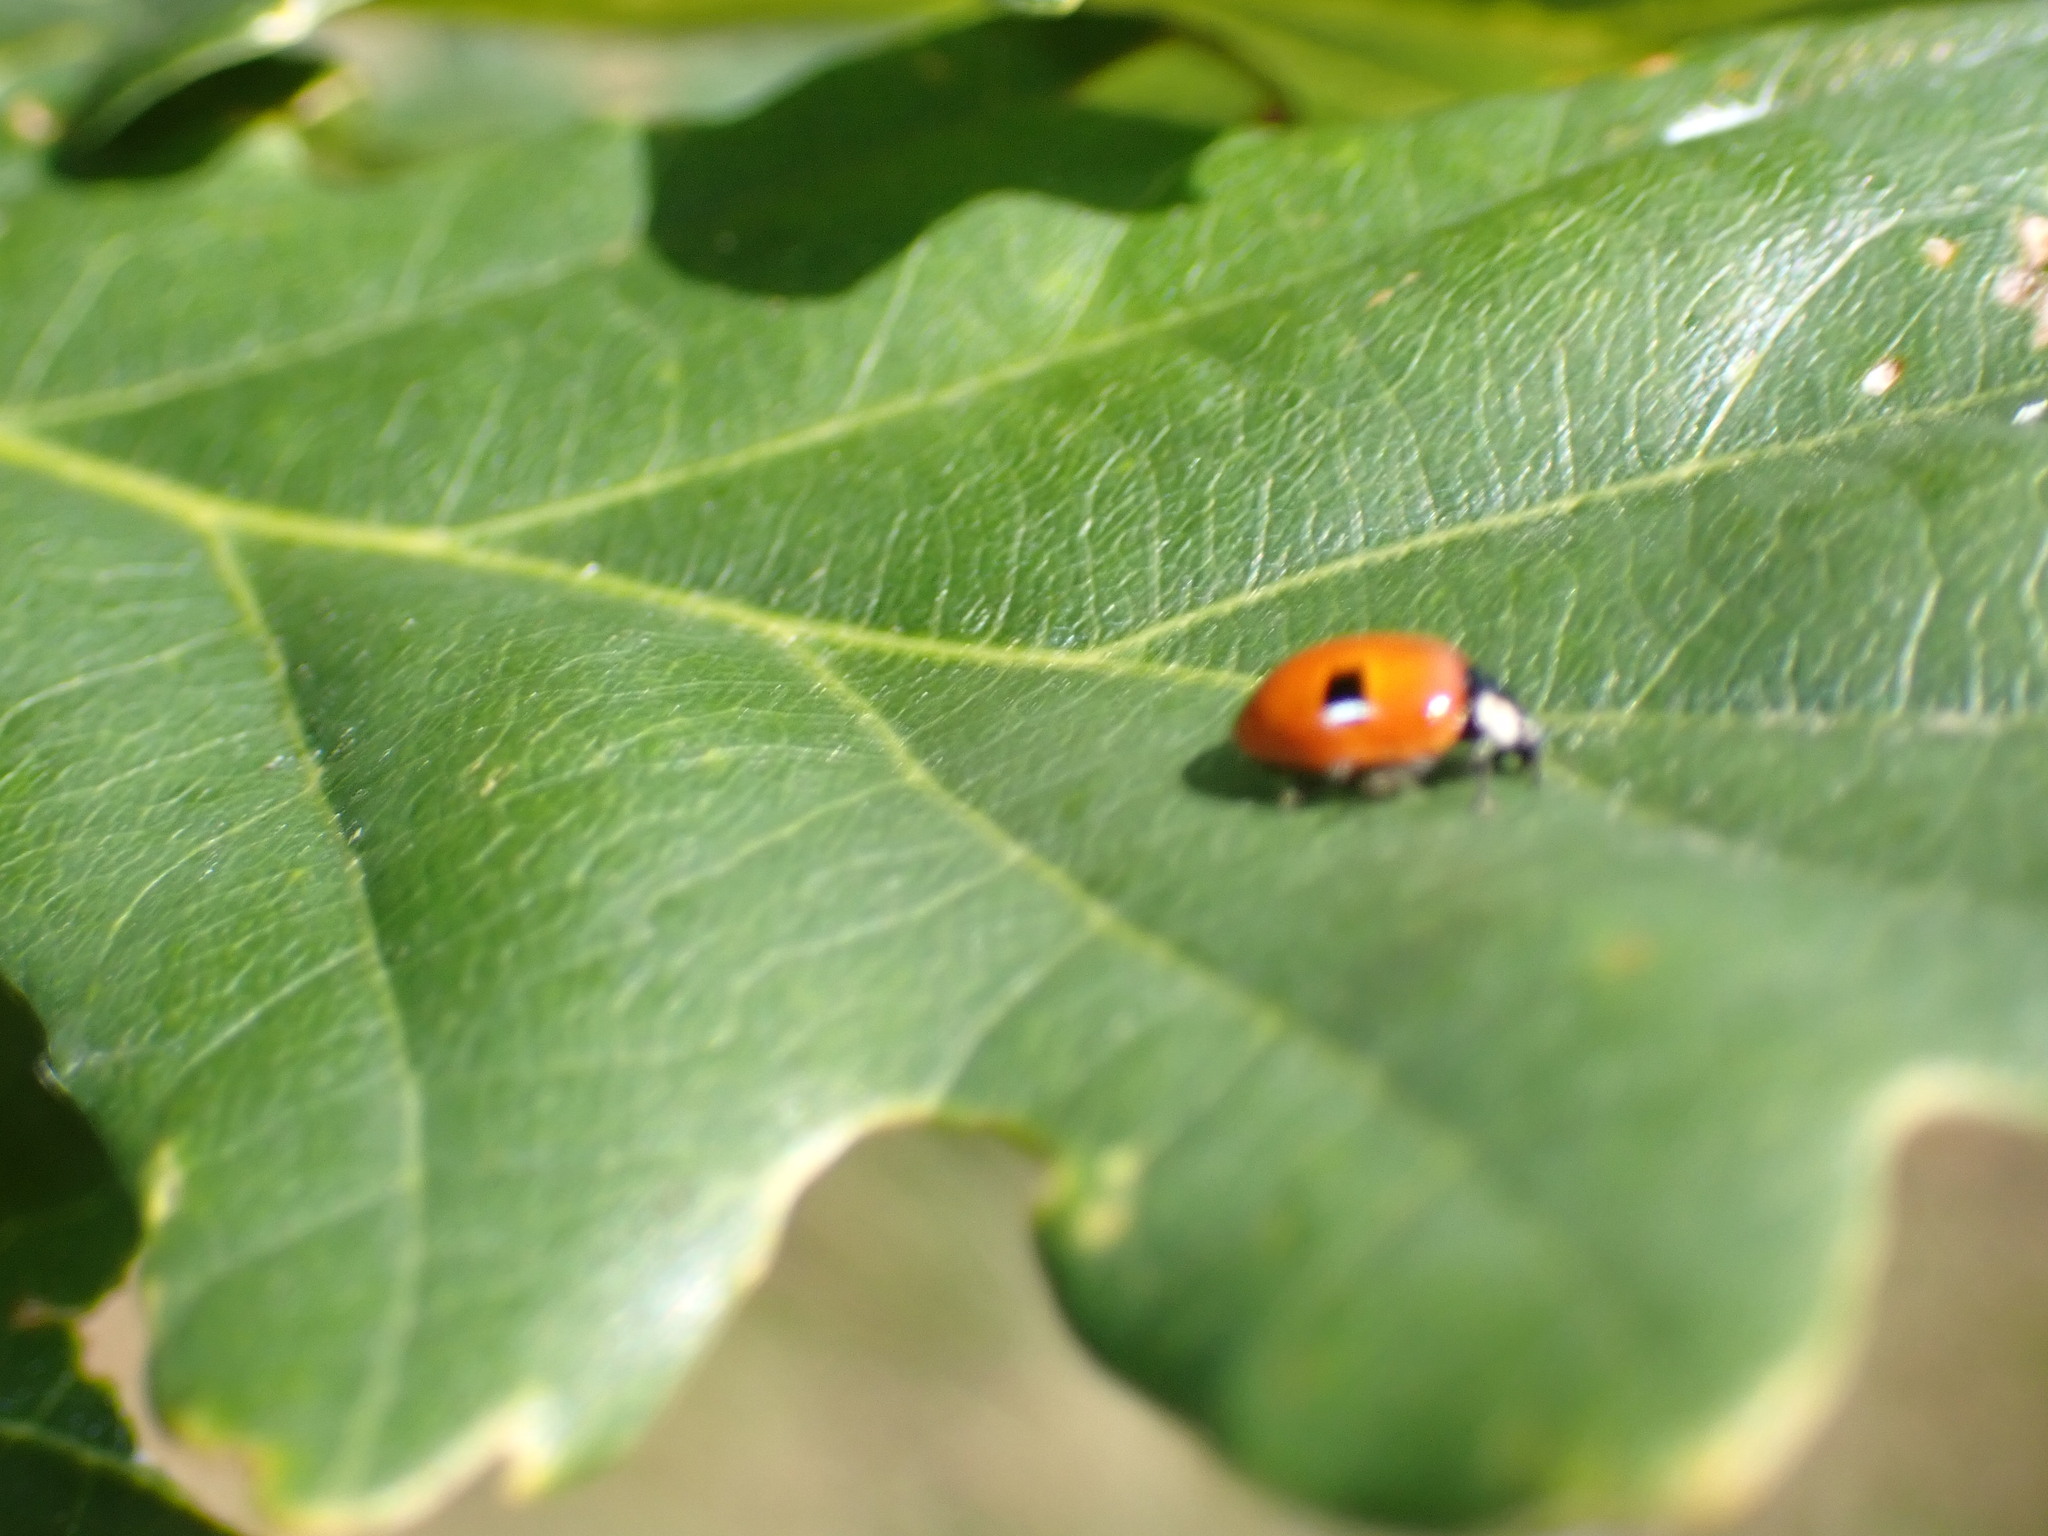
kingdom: Animalia
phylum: Arthropoda
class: Insecta
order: Coleoptera
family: Coccinellidae
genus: Adalia
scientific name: Adalia bipunctata
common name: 2-spot ladybird
